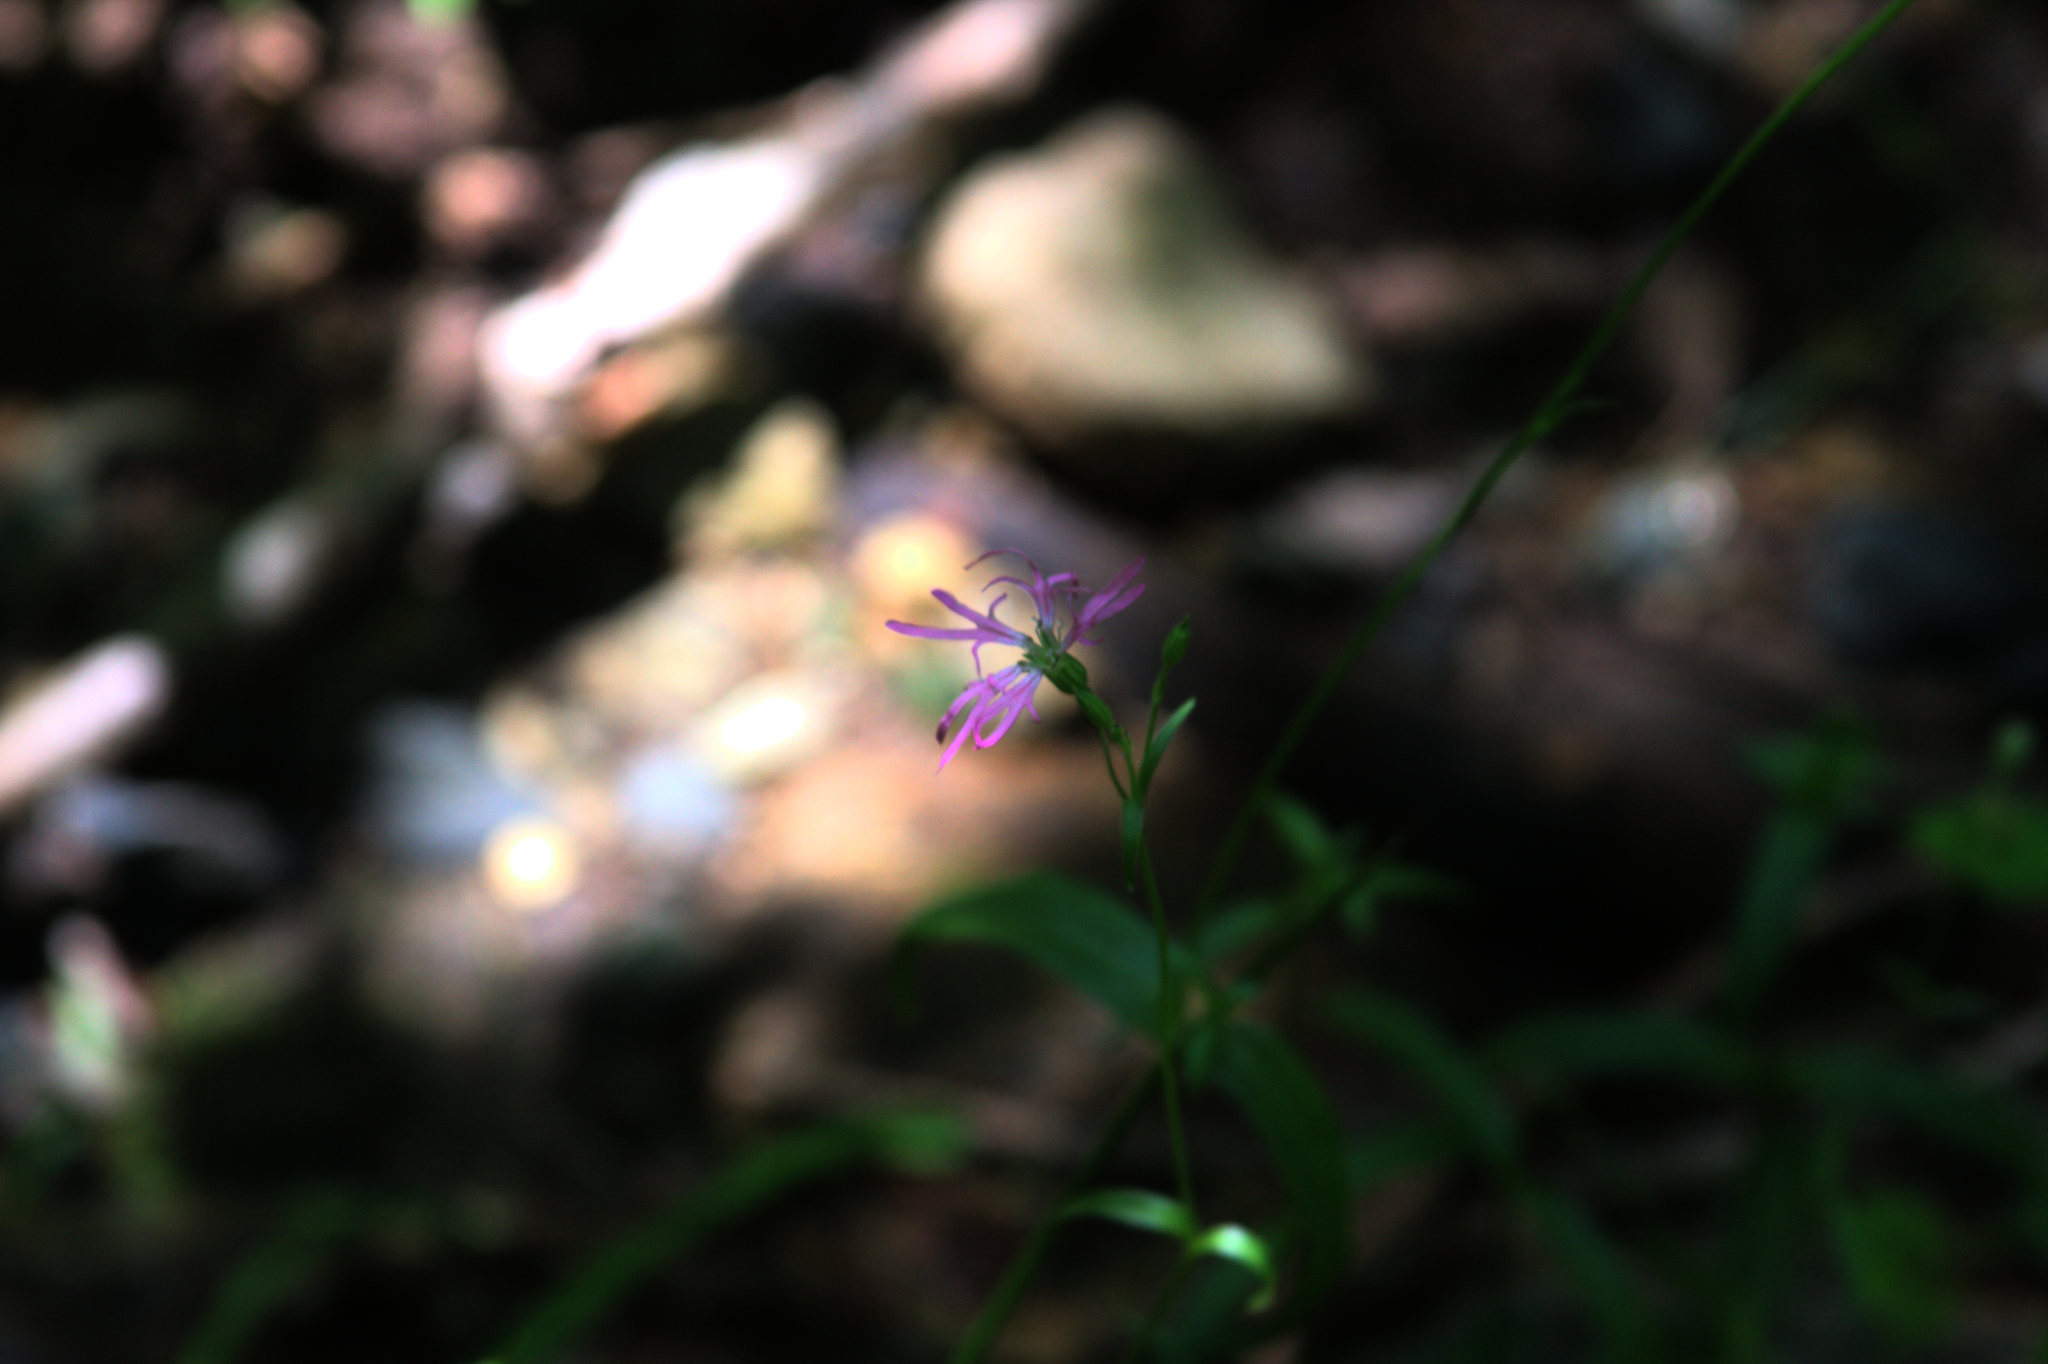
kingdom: Plantae
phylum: Tracheophyta
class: Magnoliopsida
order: Caryophyllales
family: Caryophyllaceae
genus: Silene
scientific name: Silene flos-cuculi
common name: Ragged-robin
